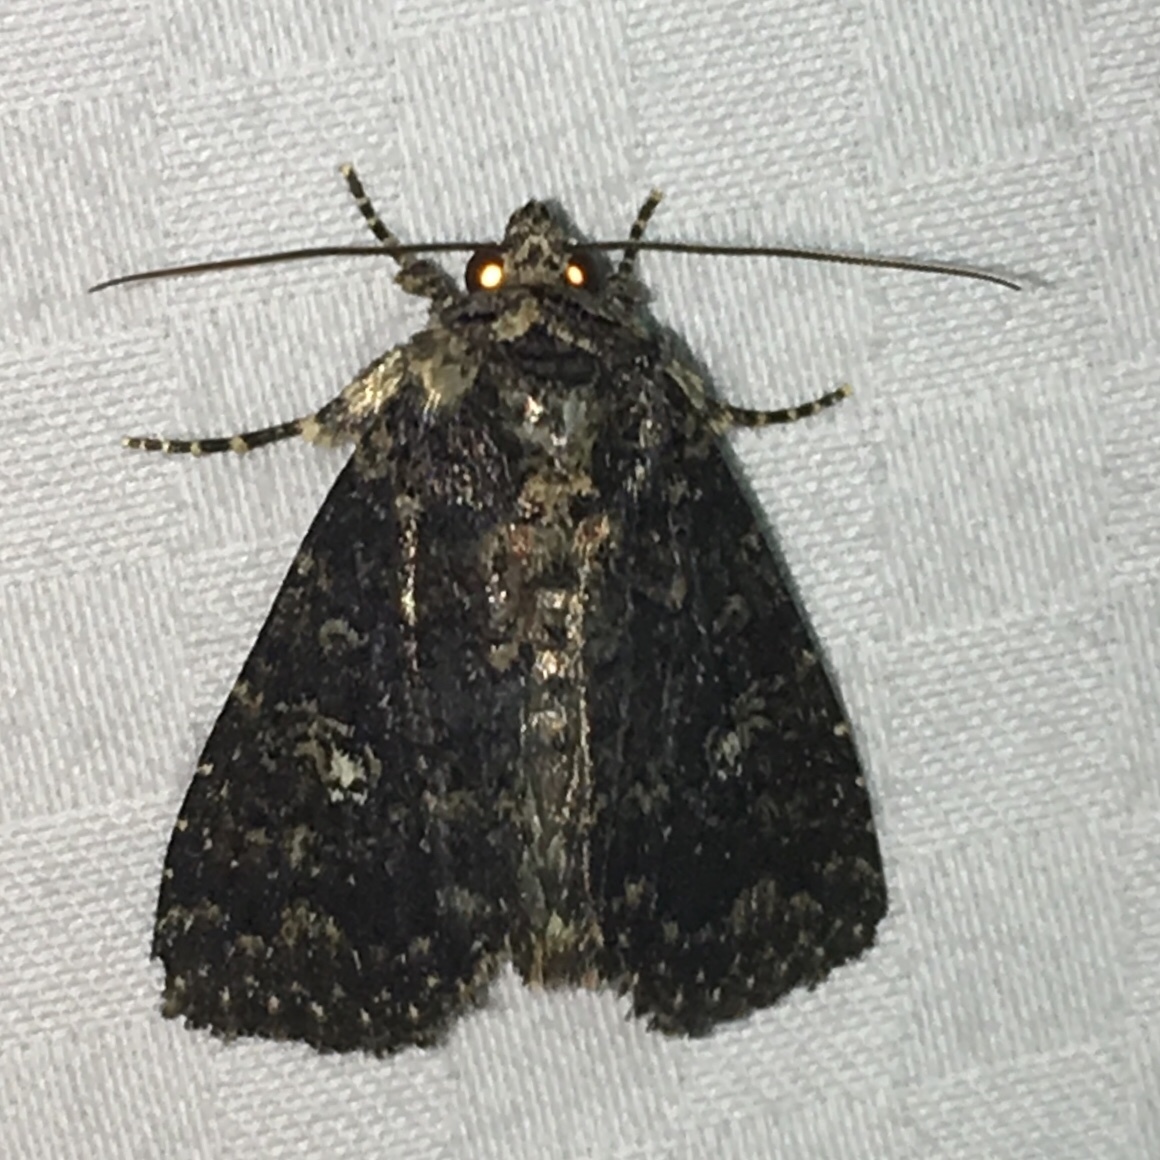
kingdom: Animalia
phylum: Arthropoda
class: Insecta
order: Lepidoptera
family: Noctuidae
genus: Condica
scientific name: Condica vecors
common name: Dusky groundling
